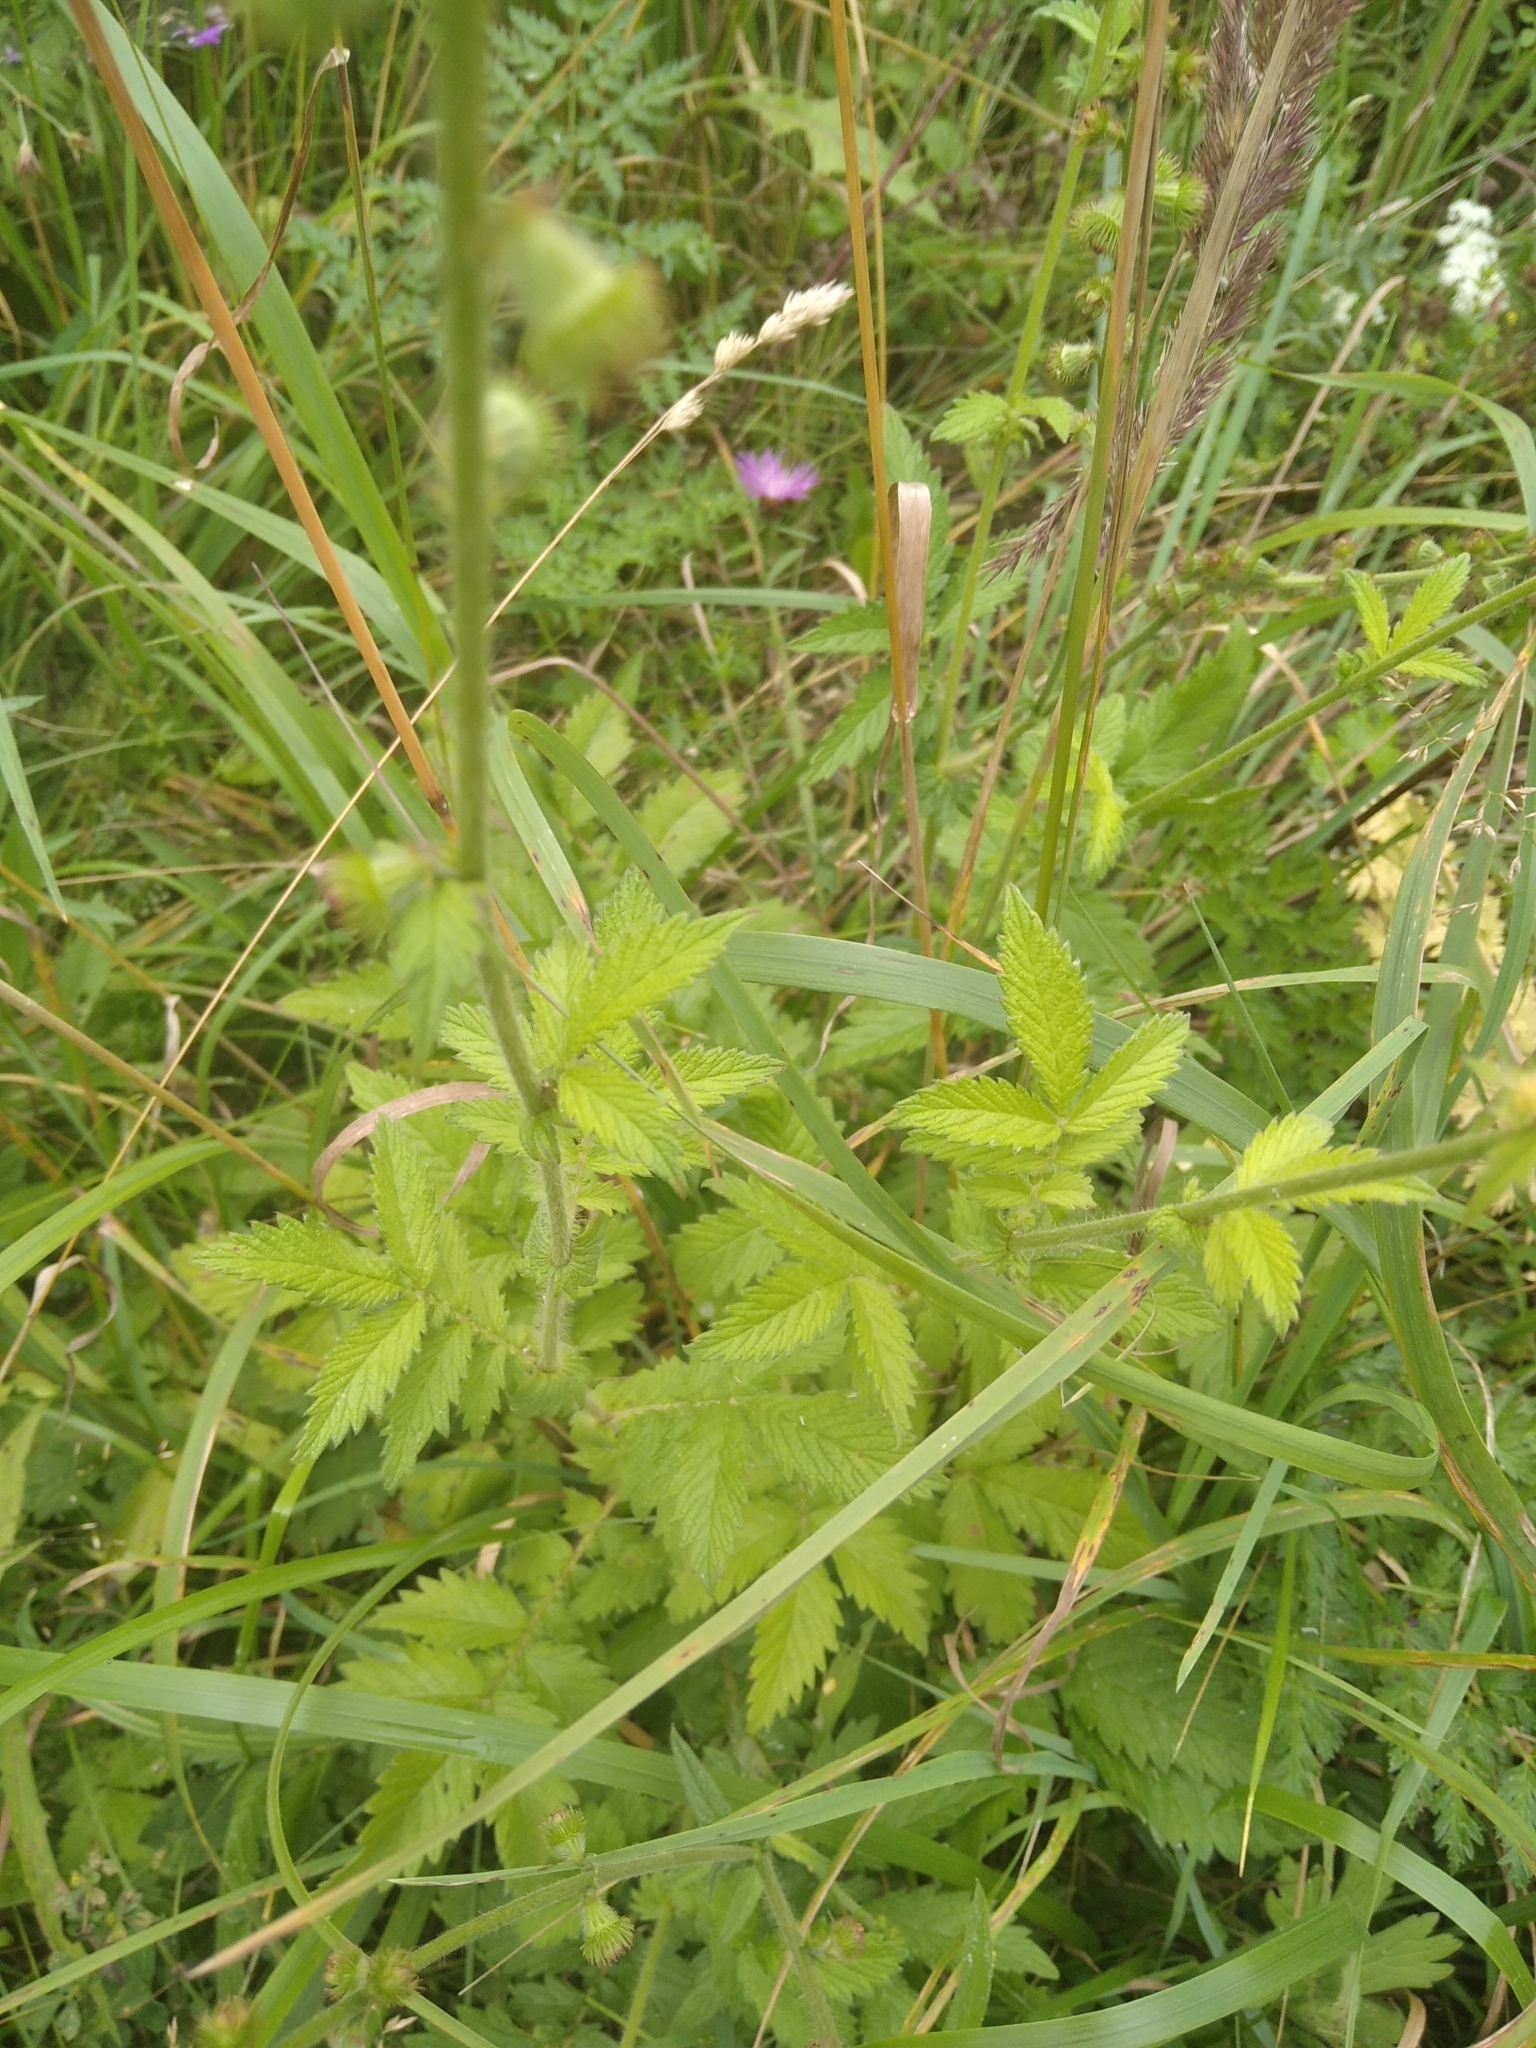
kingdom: Plantae
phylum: Tracheophyta
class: Magnoliopsida
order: Rosales
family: Rosaceae
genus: Agrimonia
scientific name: Agrimonia eupatoria
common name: Agrimony
